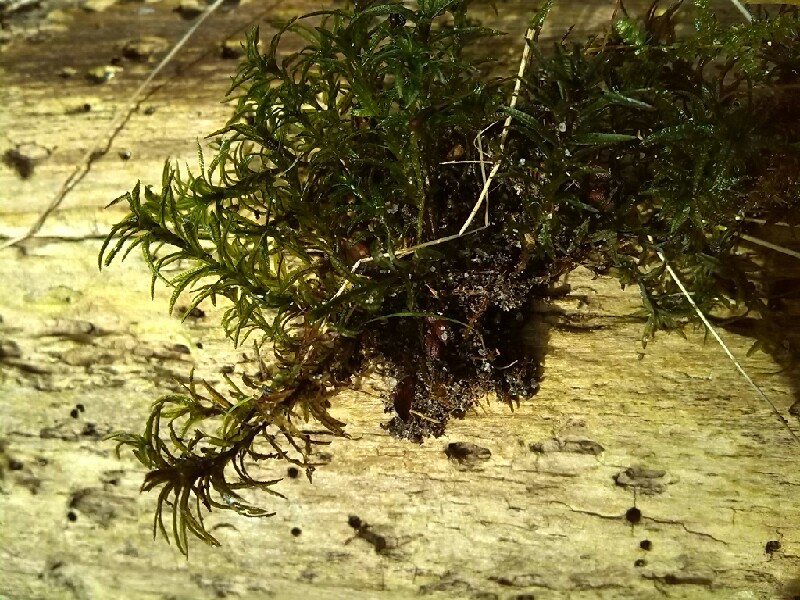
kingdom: Plantae
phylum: Bryophyta
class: Polytrichopsida
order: Polytrichales
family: Polytrichaceae
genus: Atrichum
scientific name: Atrichum undulatum
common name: Common smoothcap
